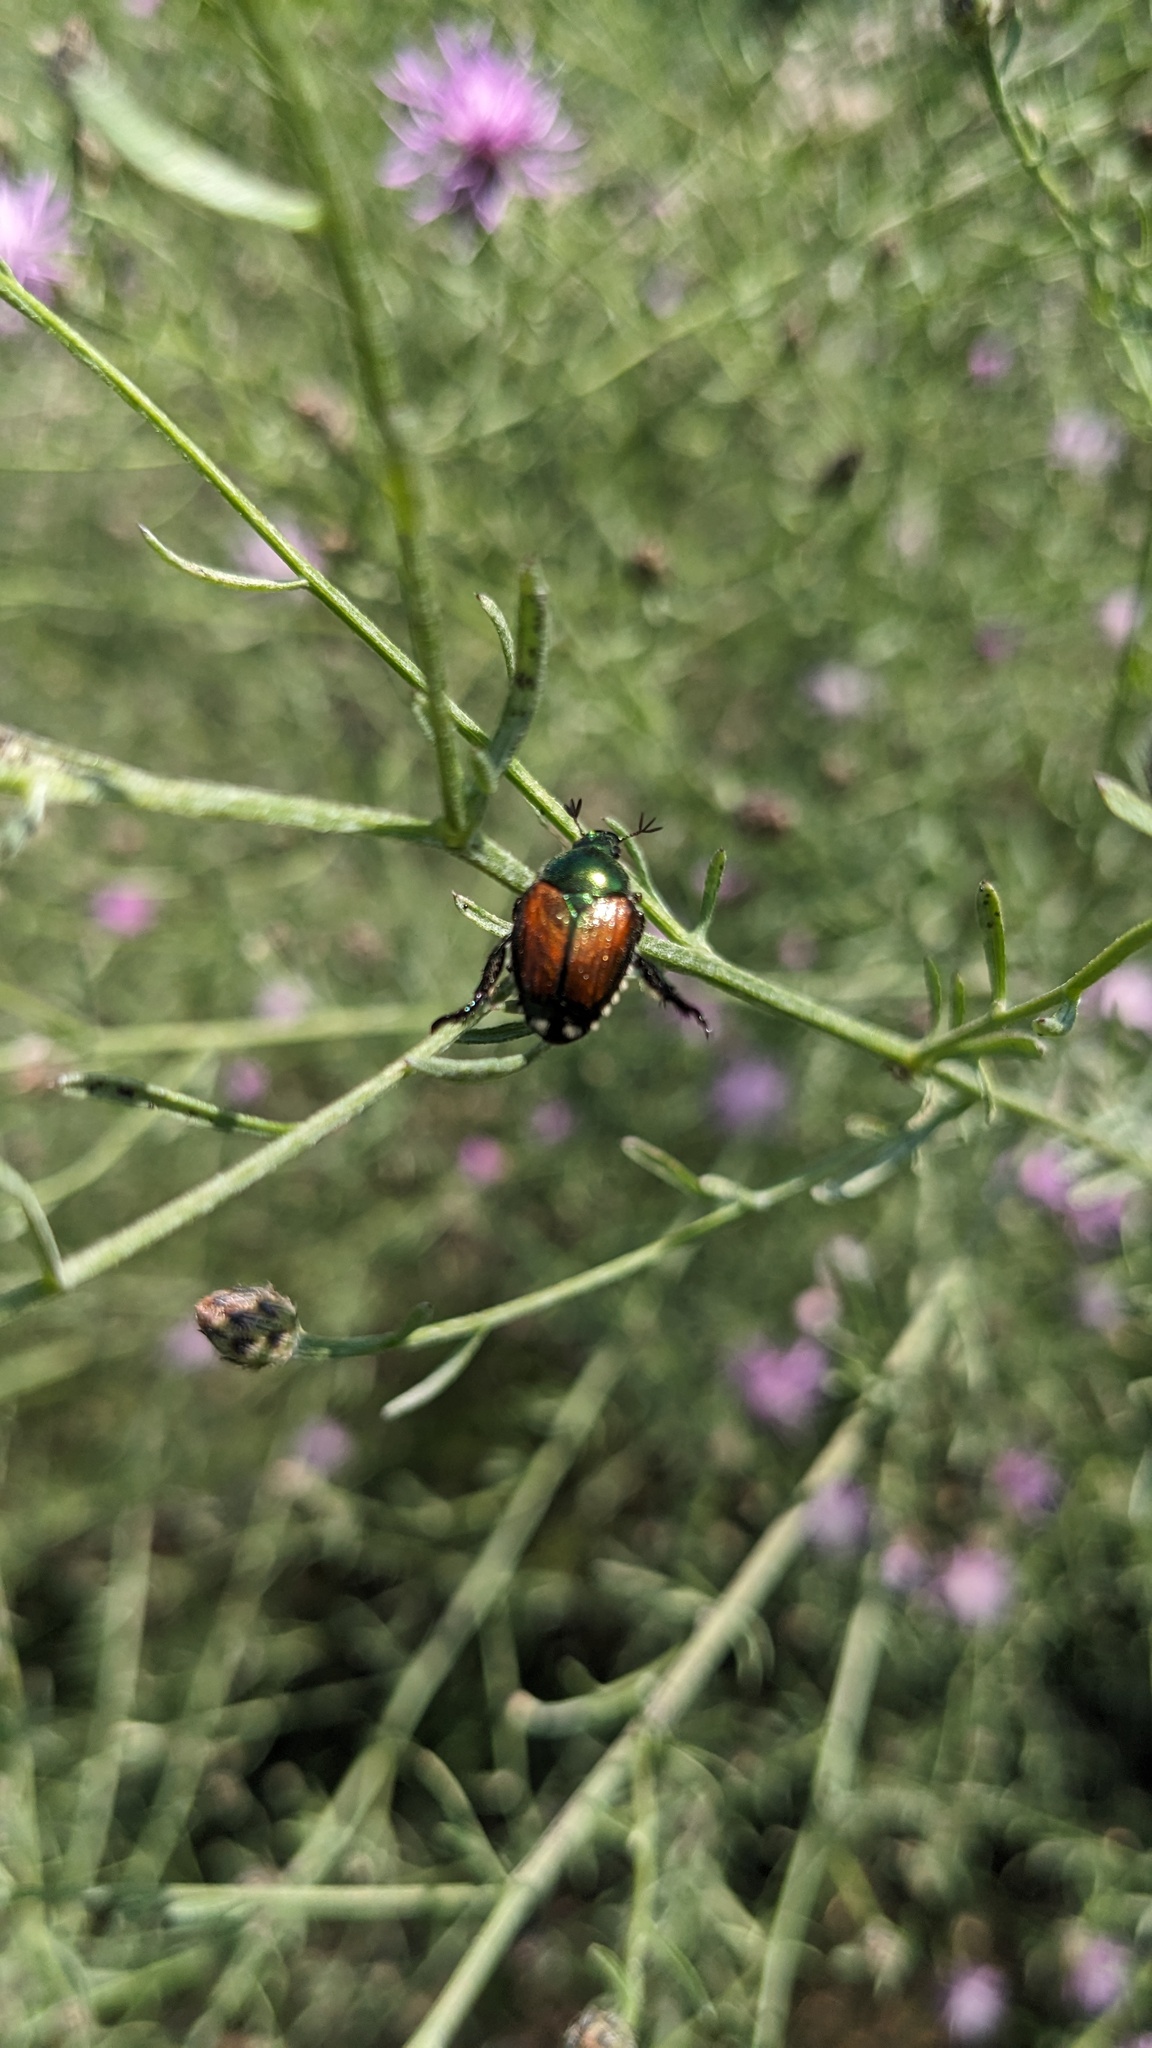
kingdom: Animalia
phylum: Arthropoda
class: Insecta
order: Coleoptera
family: Scarabaeidae
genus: Popillia
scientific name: Popillia japonica
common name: Japanese beetle
